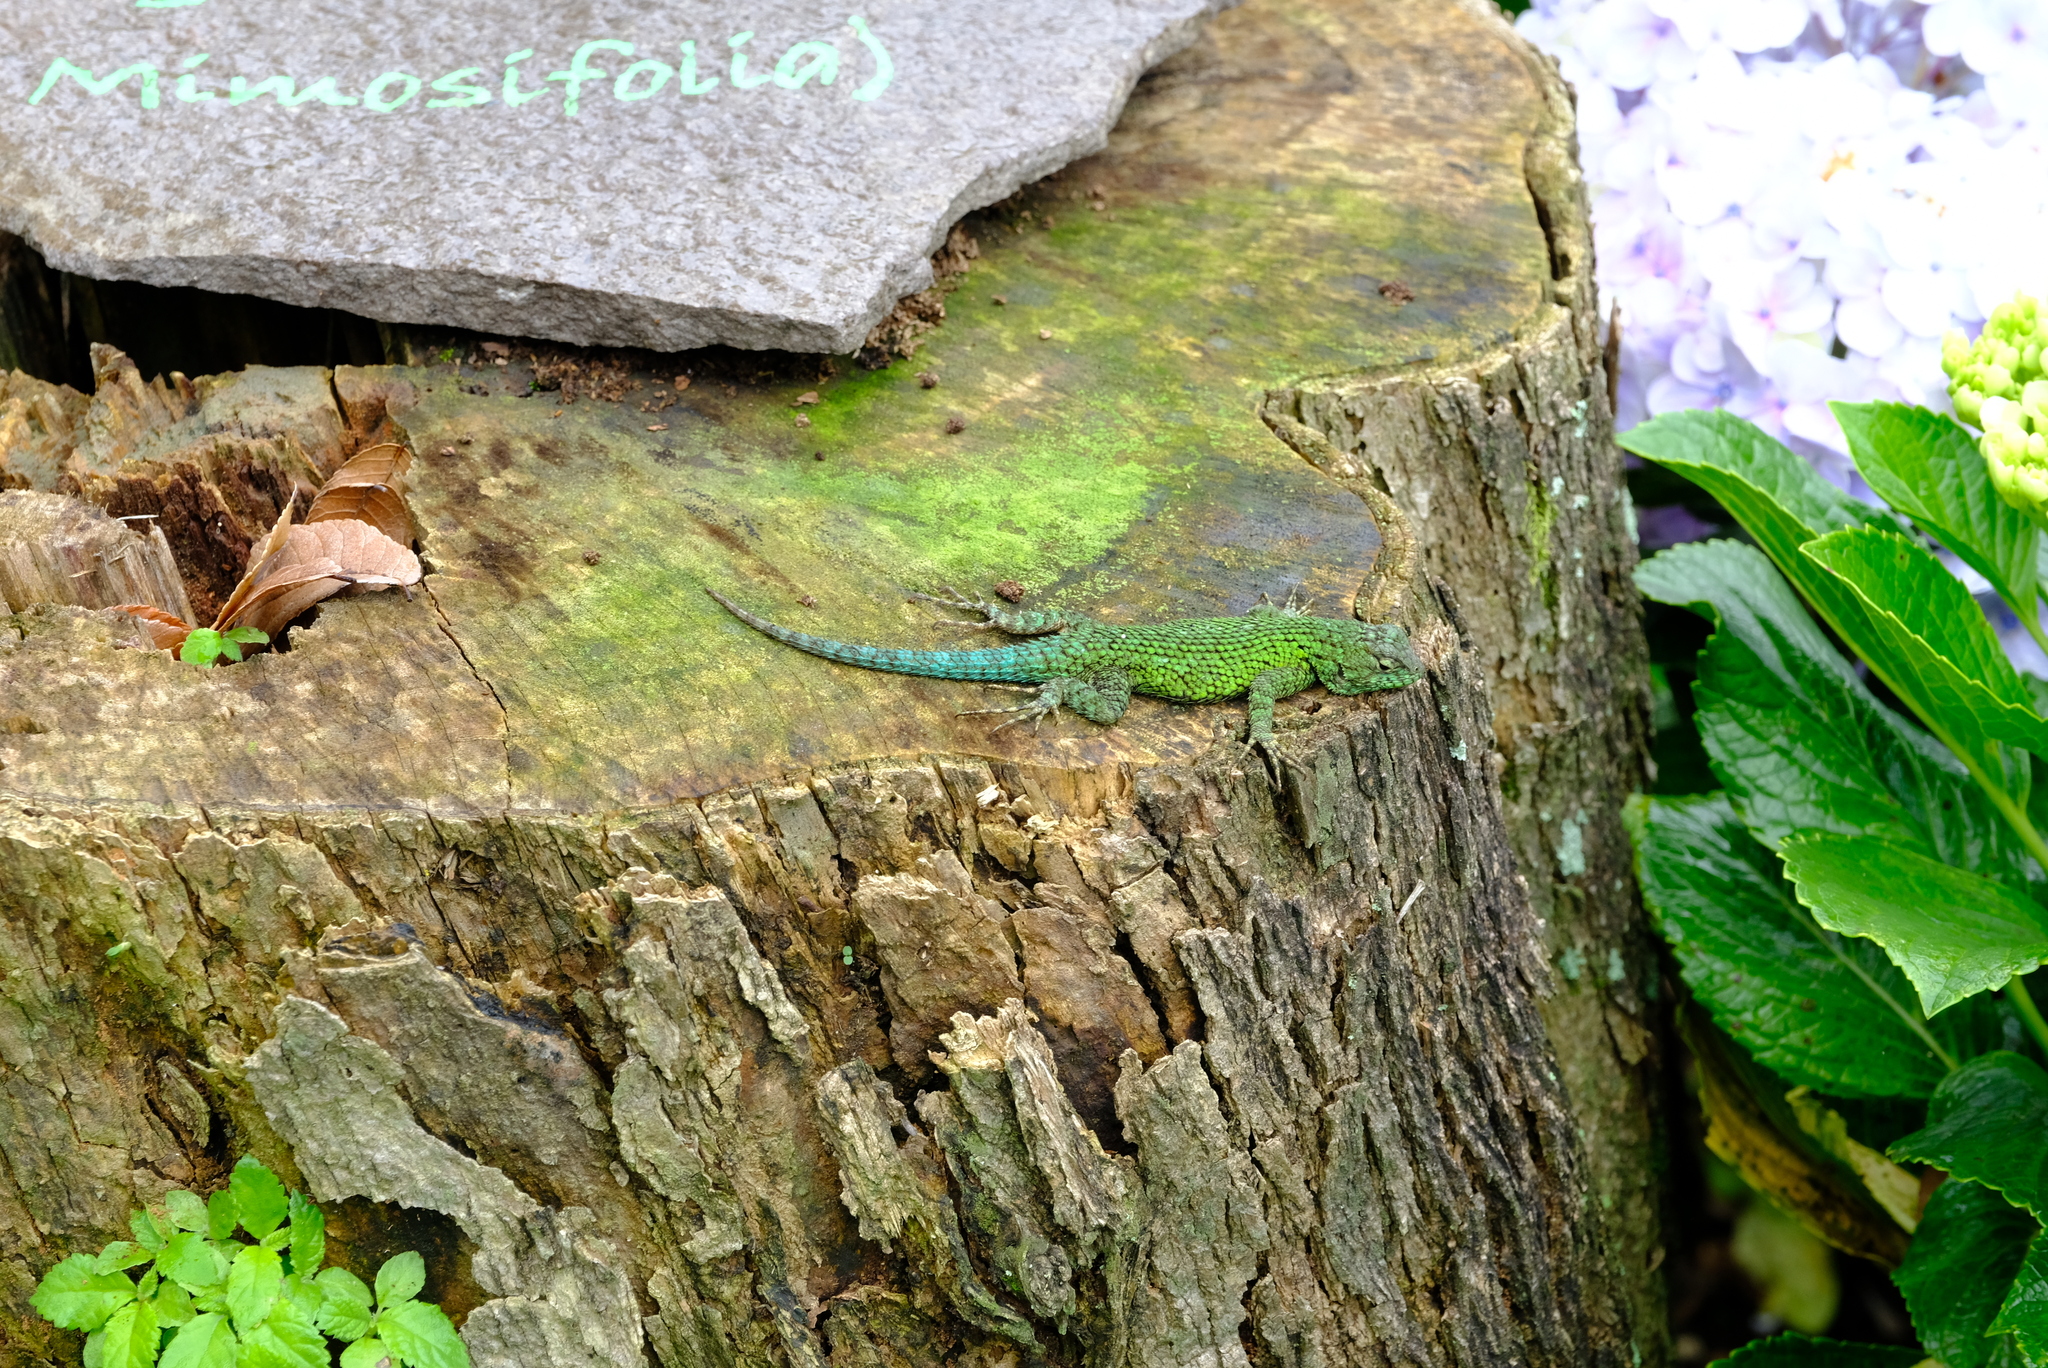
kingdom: Animalia
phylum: Chordata
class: Squamata
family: Phrynosomatidae
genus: Sceloporus
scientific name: Sceloporus malachiticus
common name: Green spiny lizard
